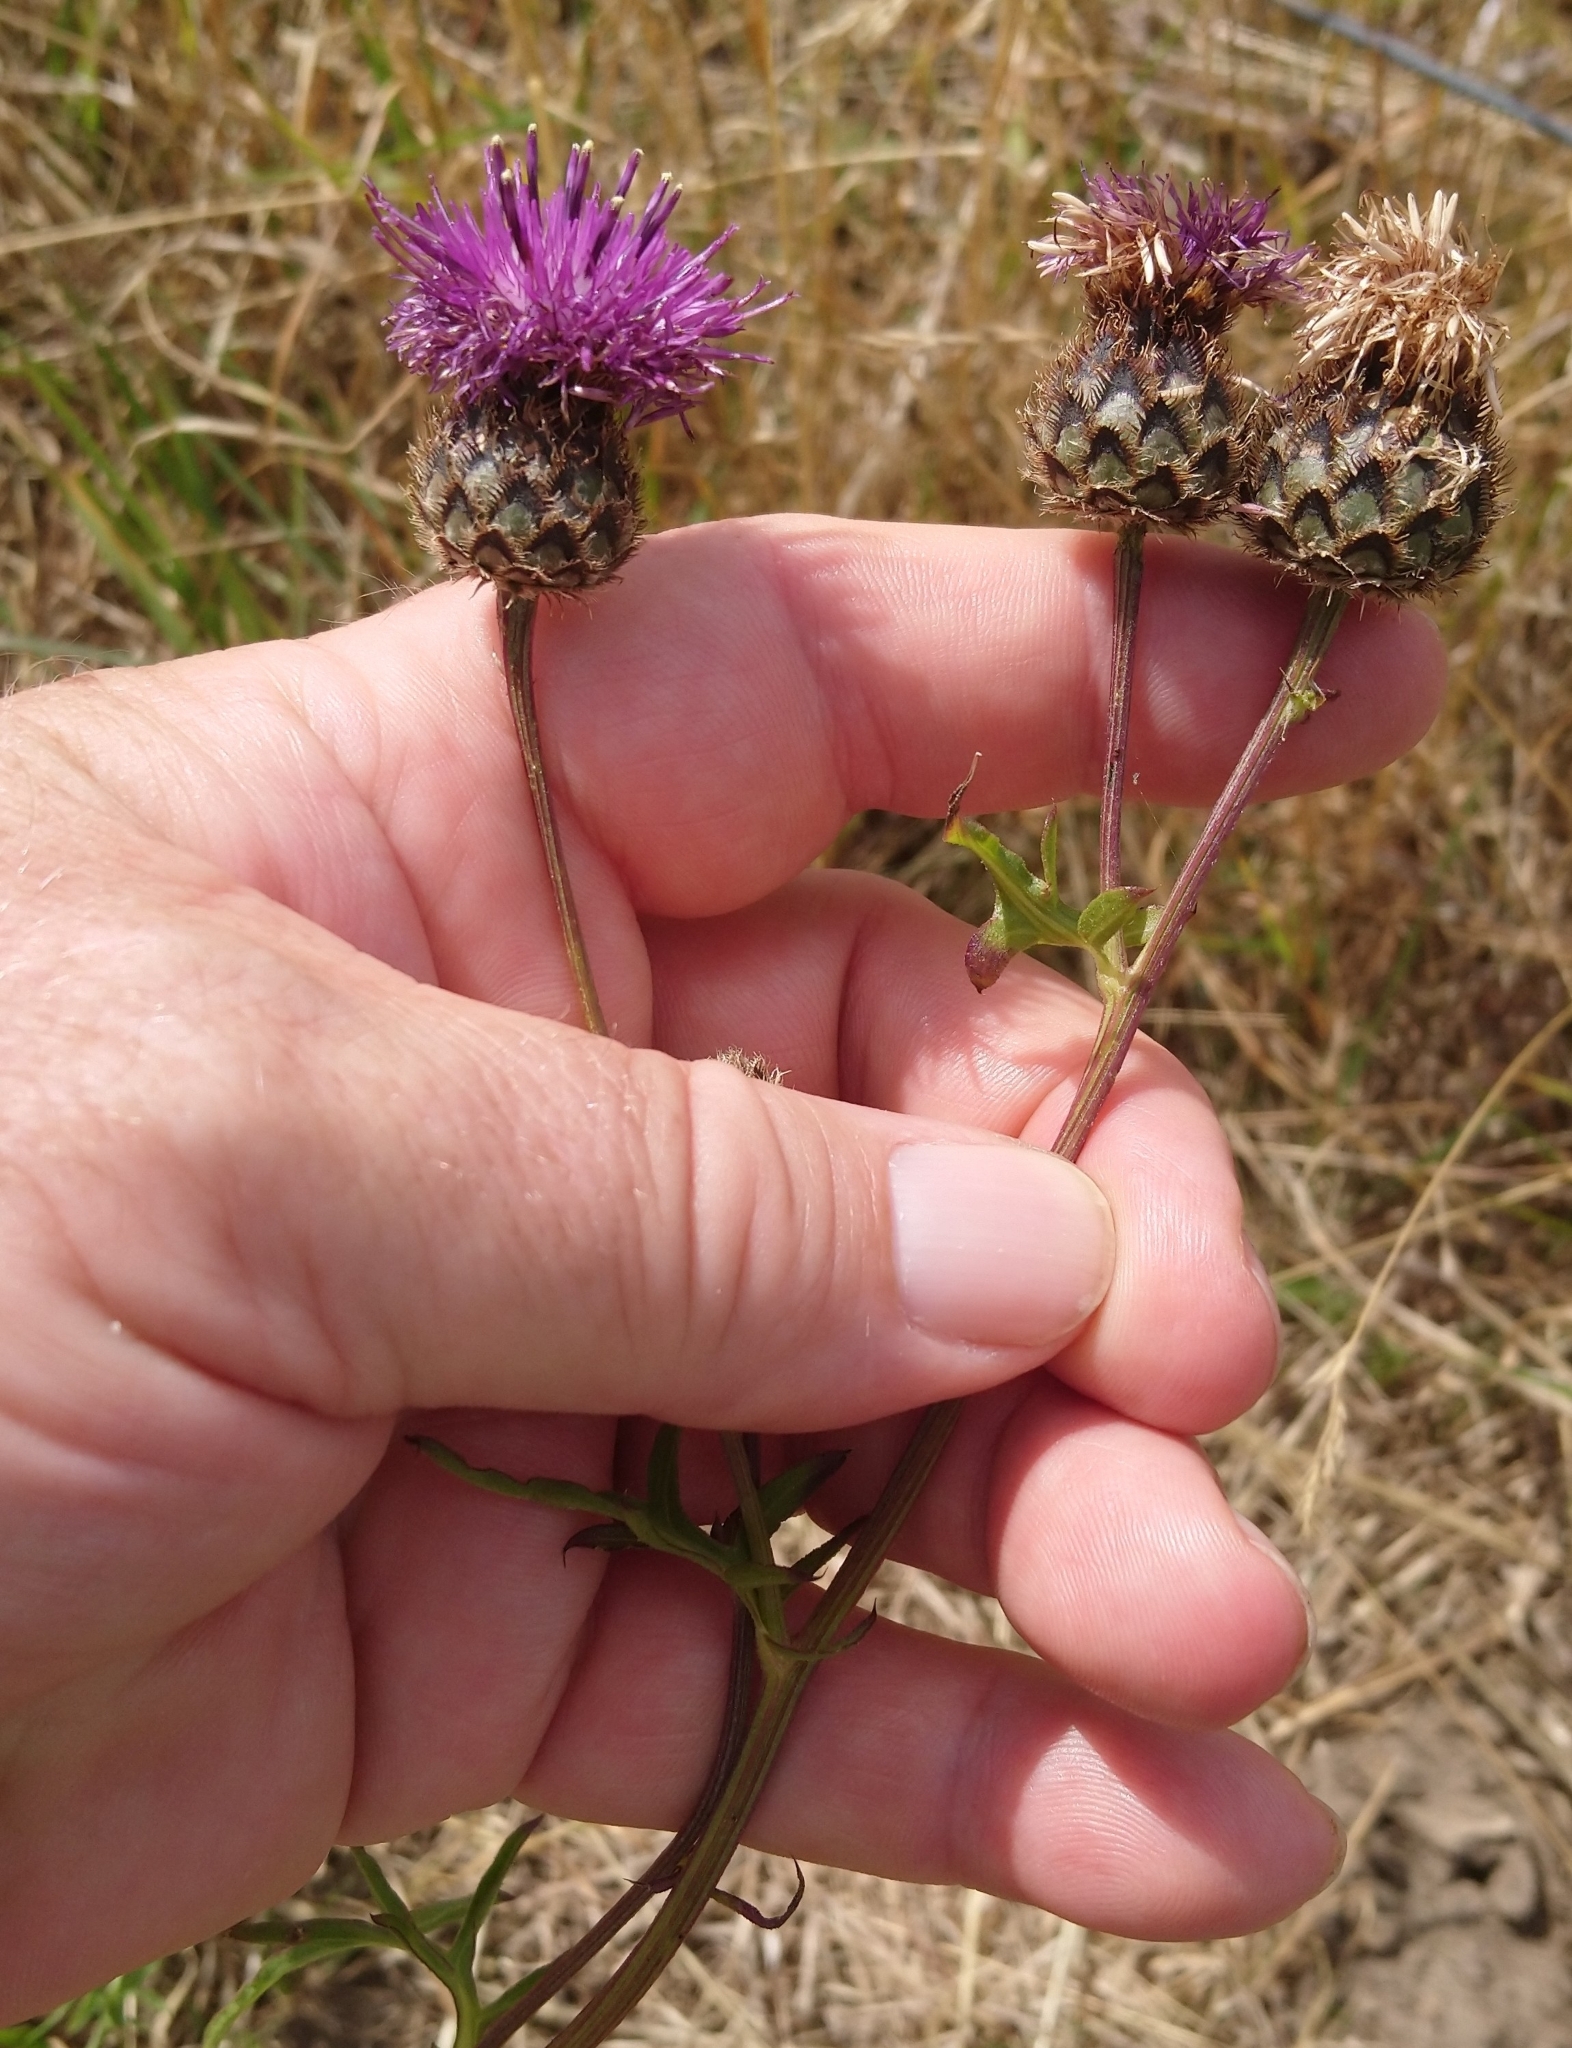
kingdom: Plantae
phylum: Tracheophyta
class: Magnoliopsida
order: Asterales
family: Asteraceae
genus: Centaurea
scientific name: Centaurea scabiosa
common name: Greater knapweed
